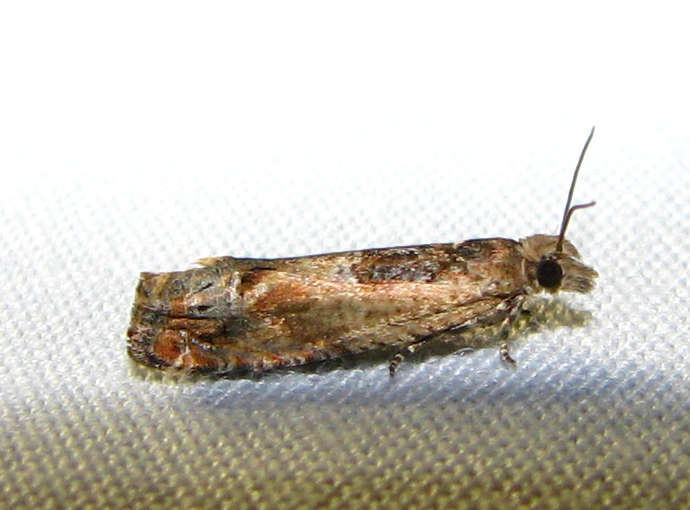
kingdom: Animalia
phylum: Arthropoda
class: Insecta
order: Lepidoptera
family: Tortricidae
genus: Crocidosema
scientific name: Crocidosema plebejana
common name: Southern bell
